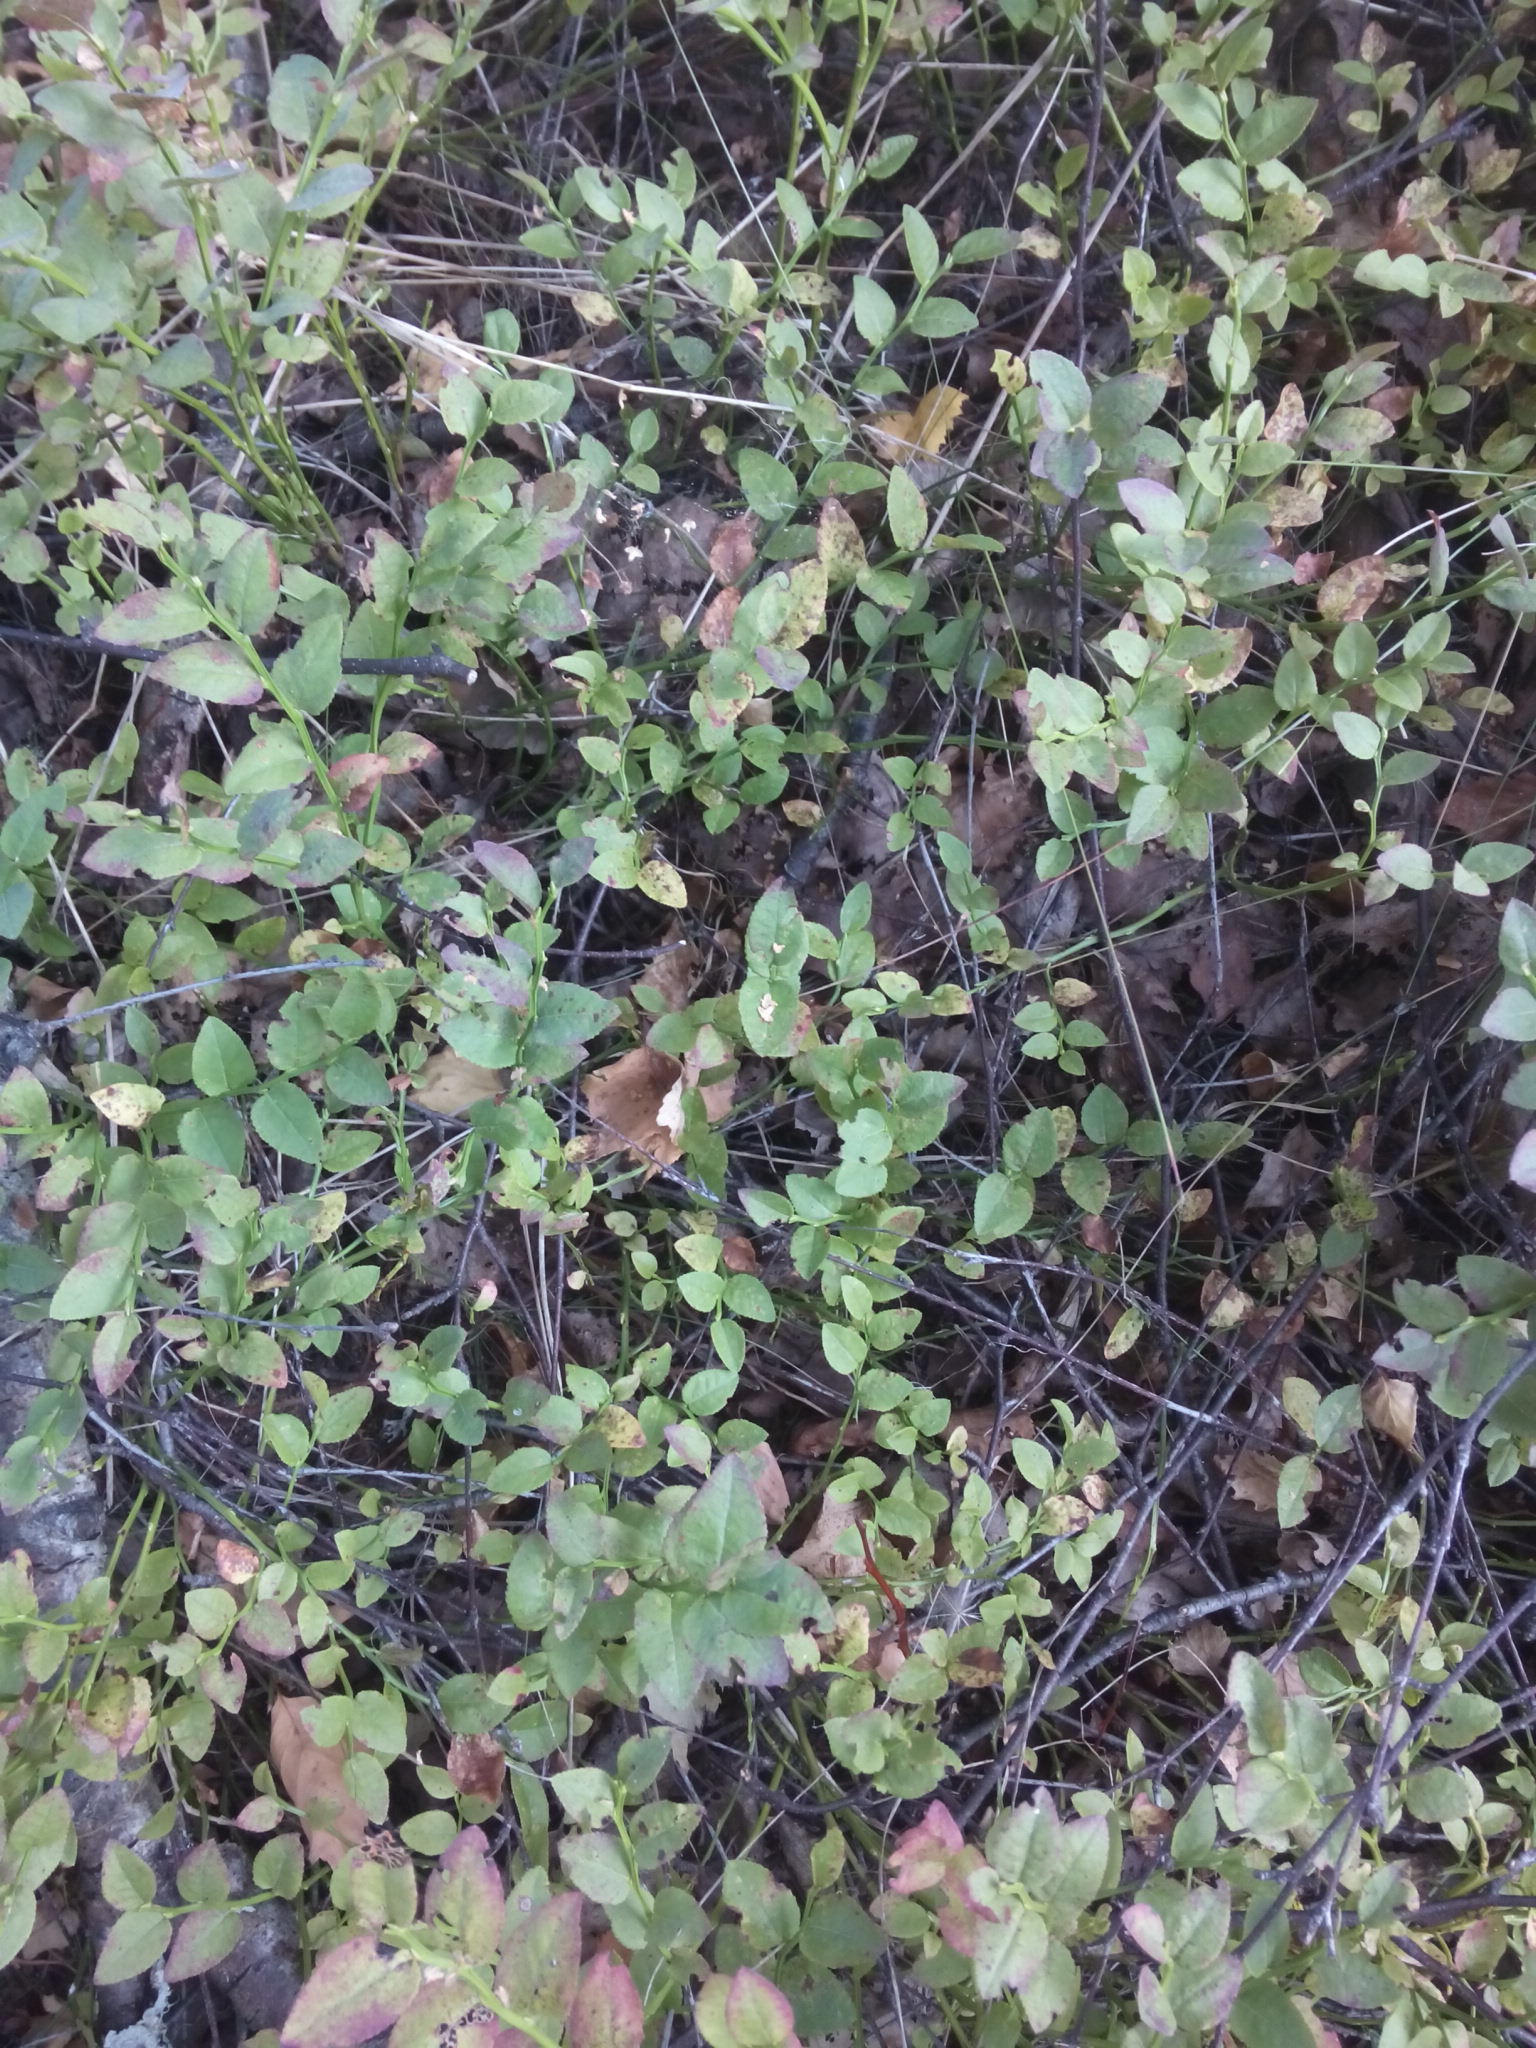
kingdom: Plantae
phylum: Tracheophyta
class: Magnoliopsida
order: Ericales
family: Ericaceae
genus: Vaccinium
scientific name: Vaccinium myrtillus
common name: Bilberry
